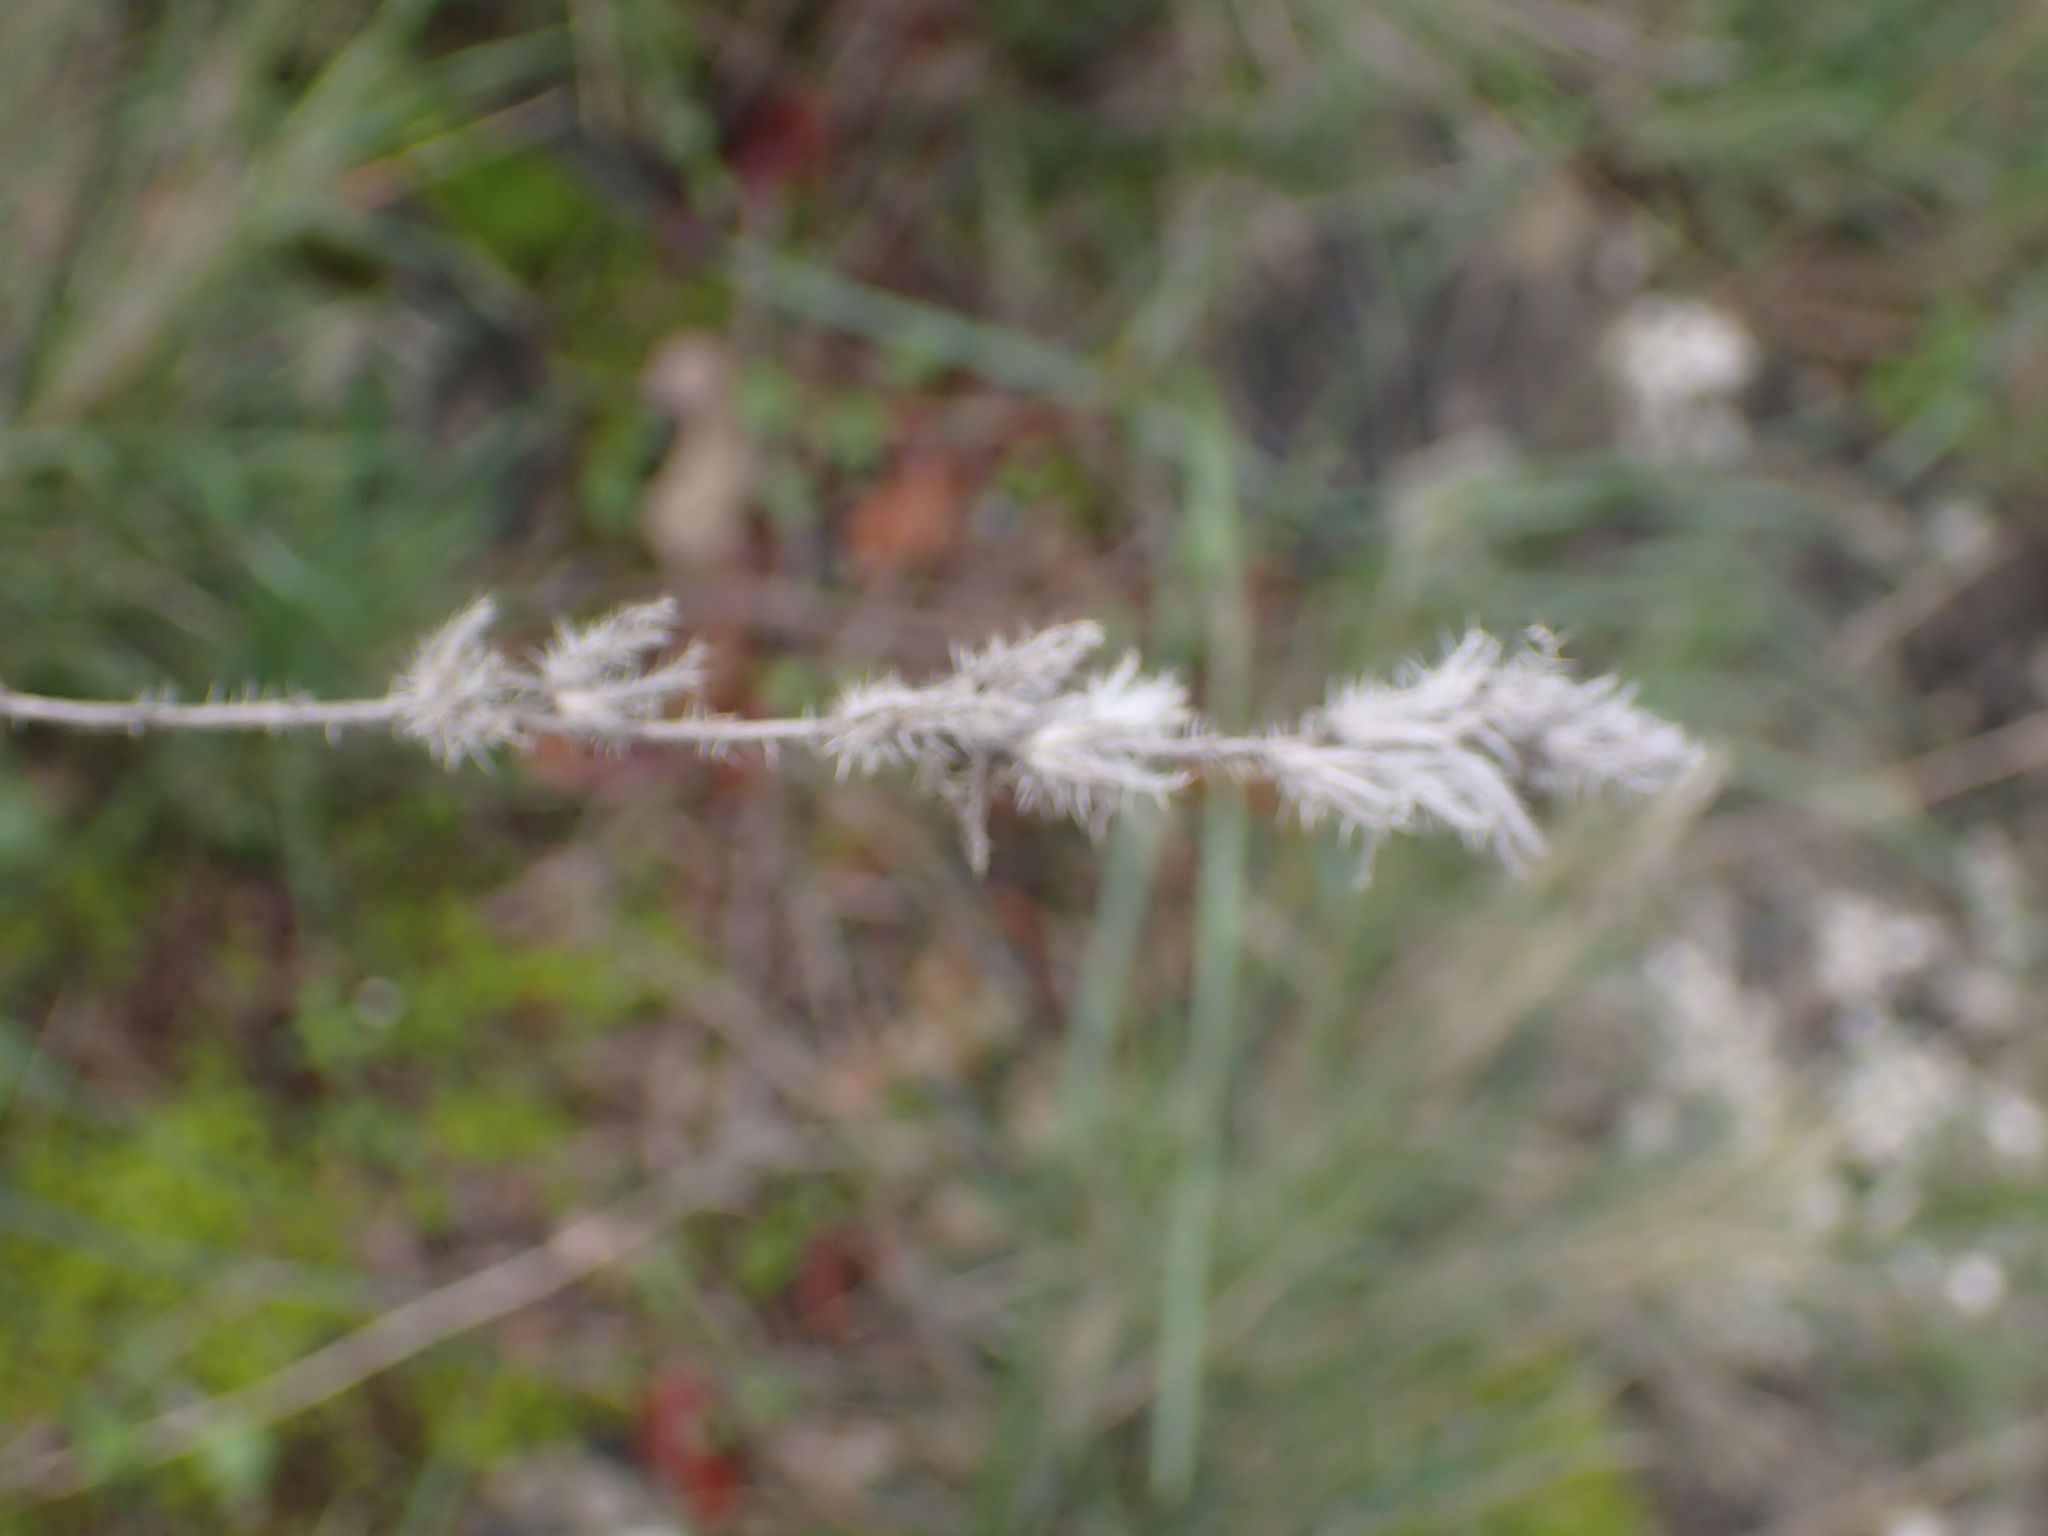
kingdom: Plantae
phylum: Tracheophyta
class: Magnoliopsida
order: Boraginales
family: Boraginaceae
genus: Echium
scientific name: Echium vulgare
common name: Common viper's bugloss
